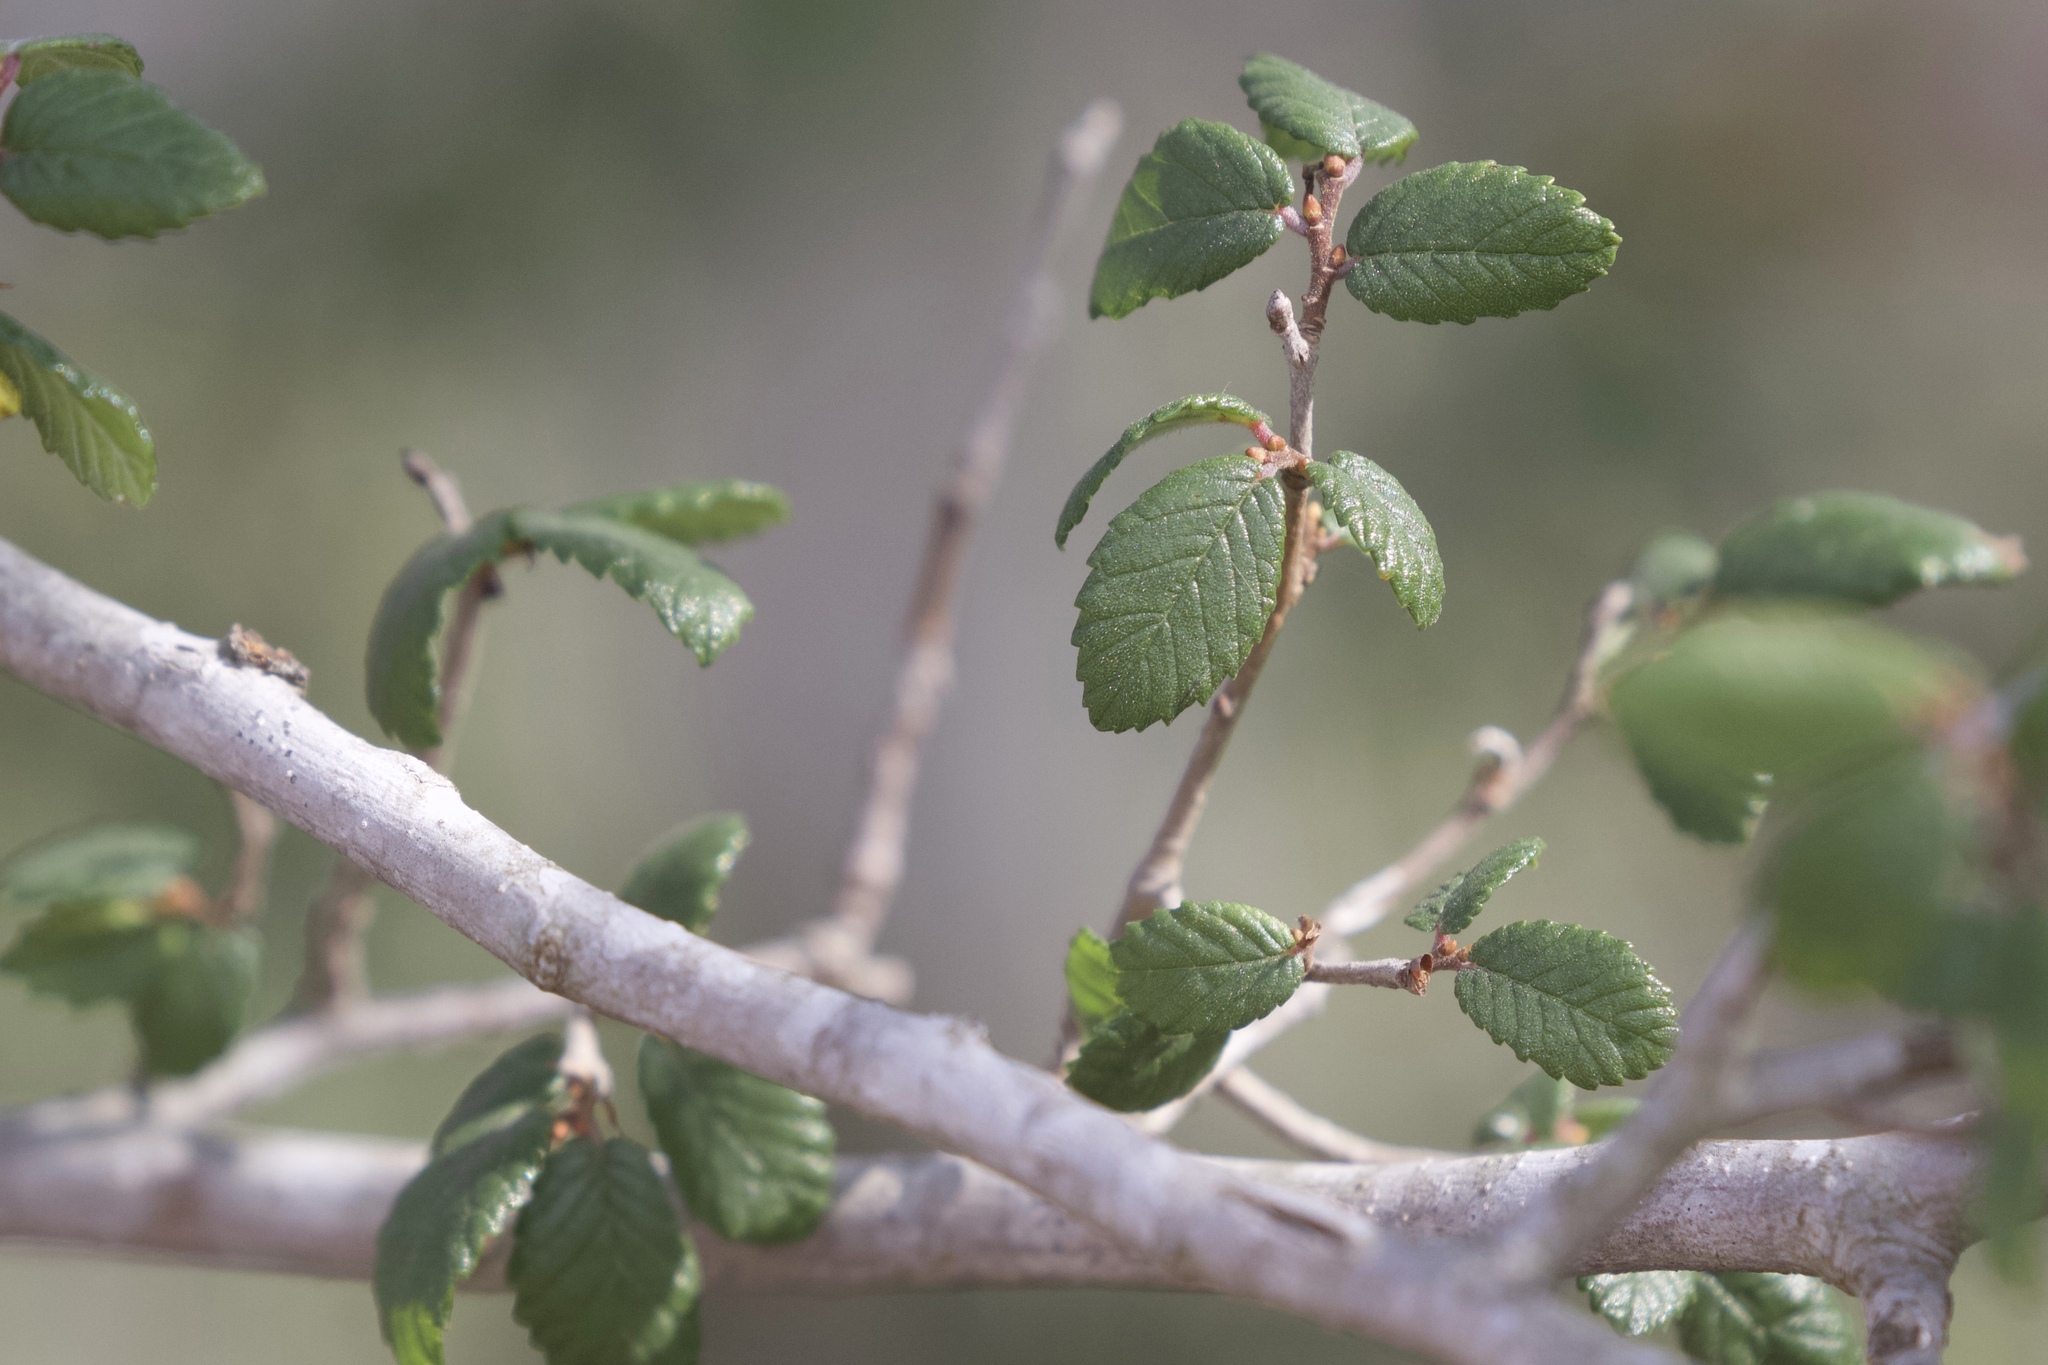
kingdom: Plantae
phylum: Tracheophyta
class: Magnoliopsida
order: Rosales
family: Ulmaceae
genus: Ulmus
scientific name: Ulmus crassifolia
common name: Basket elm
